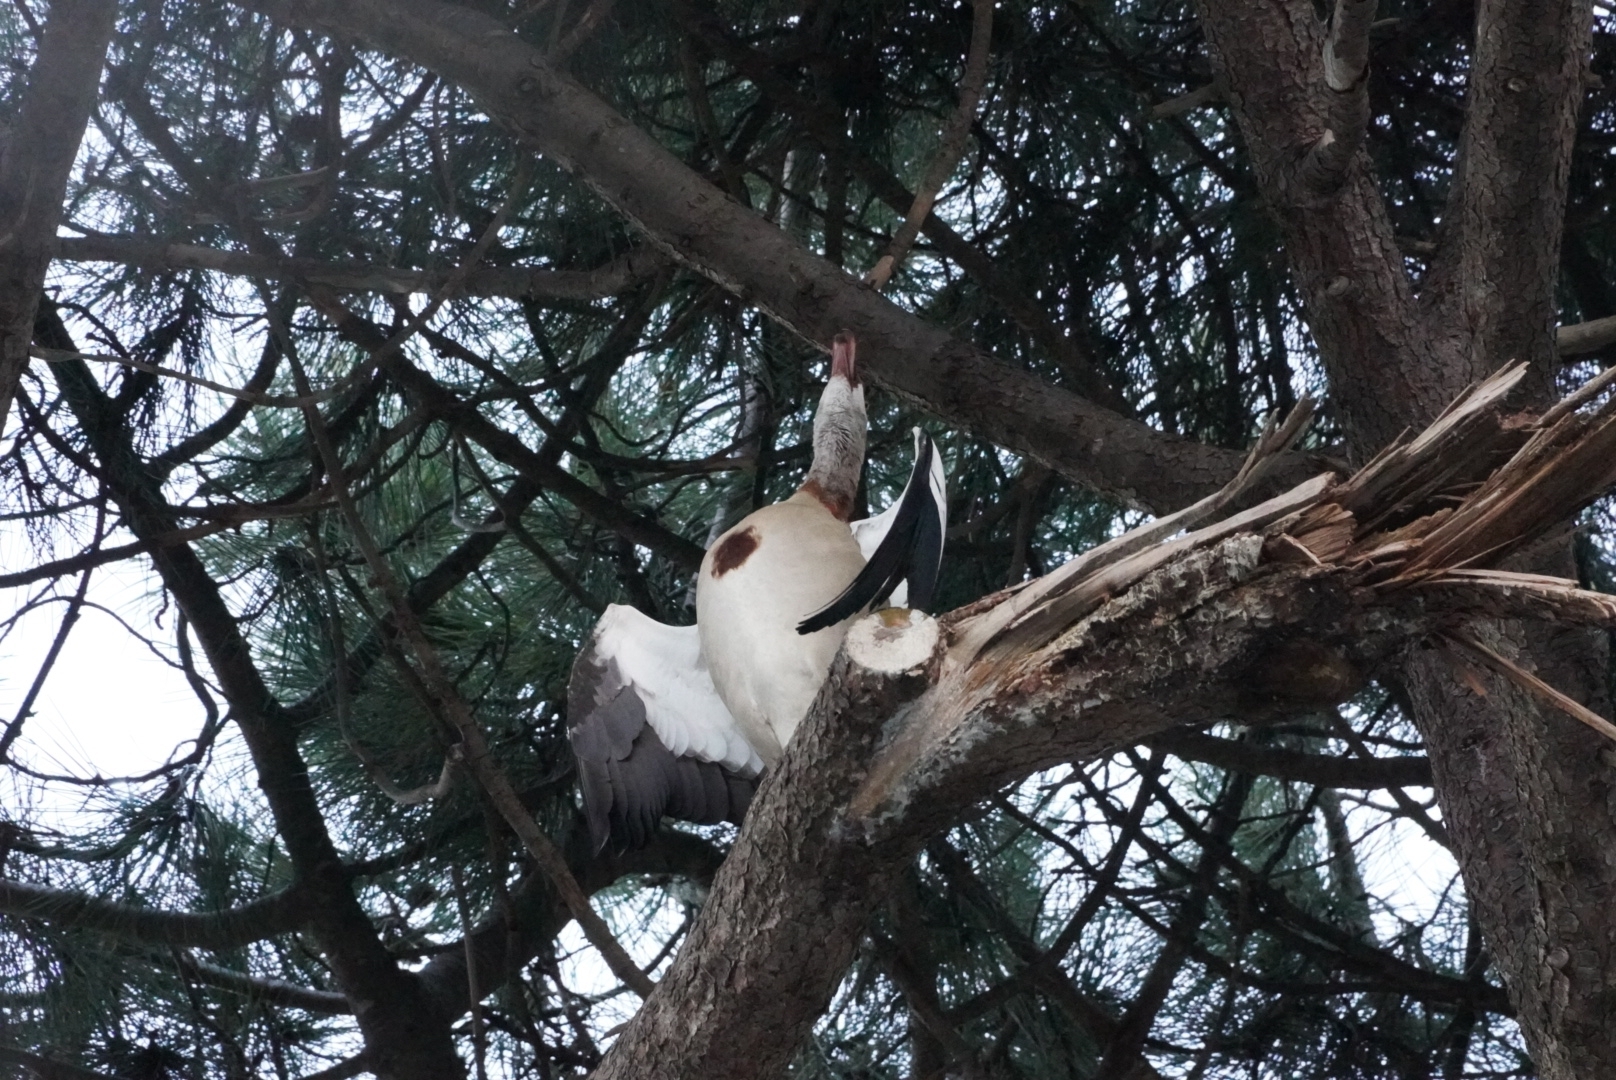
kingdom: Animalia
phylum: Chordata
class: Aves
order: Anseriformes
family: Anatidae
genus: Alopochen
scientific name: Alopochen aegyptiaca
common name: Egyptian goose
